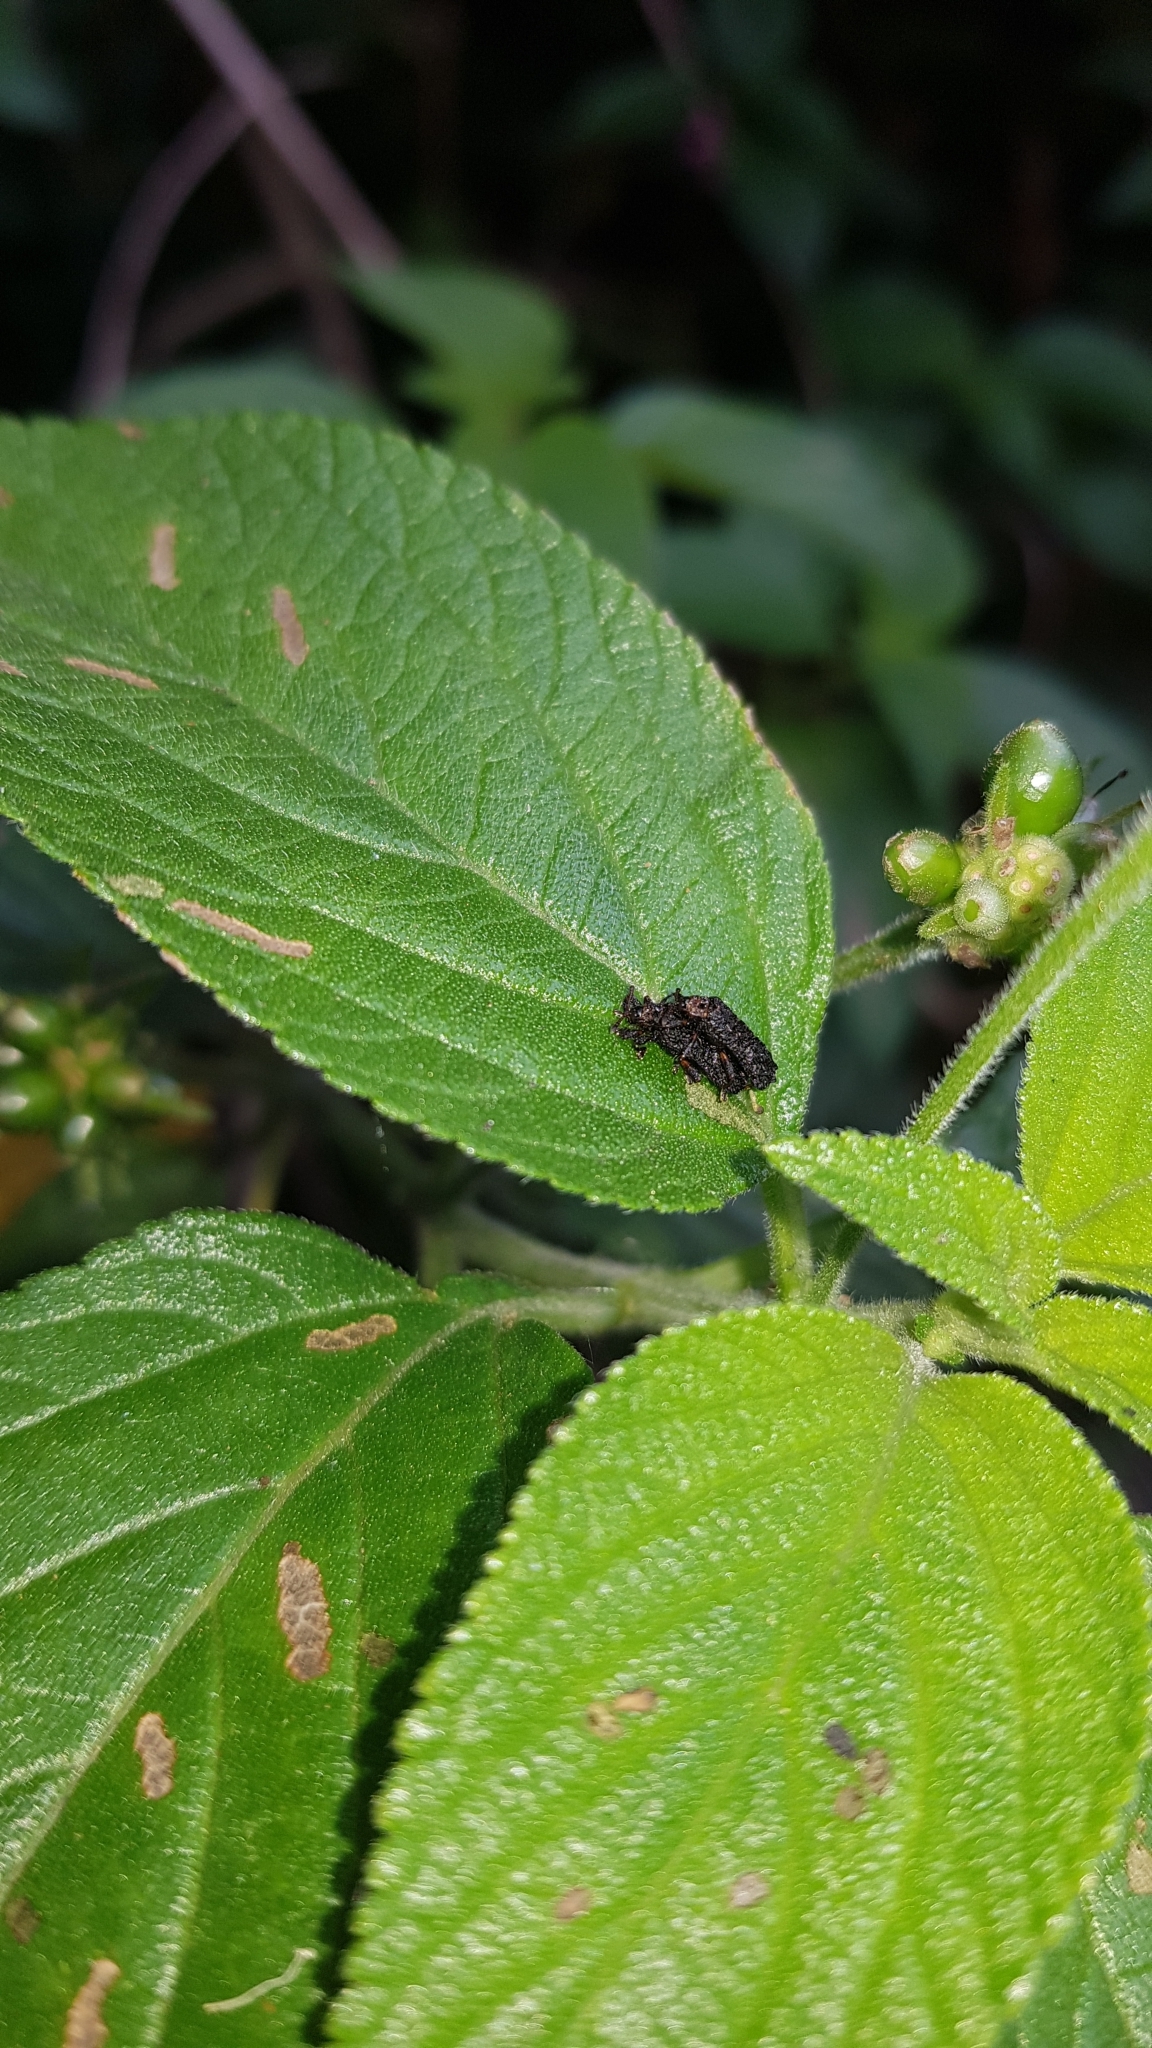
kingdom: Animalia
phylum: Arthropoda
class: Insecta
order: Coleoptera
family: Chrysomelidae
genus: Octotoma
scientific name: Octotoma scabripennis
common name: Beetle
